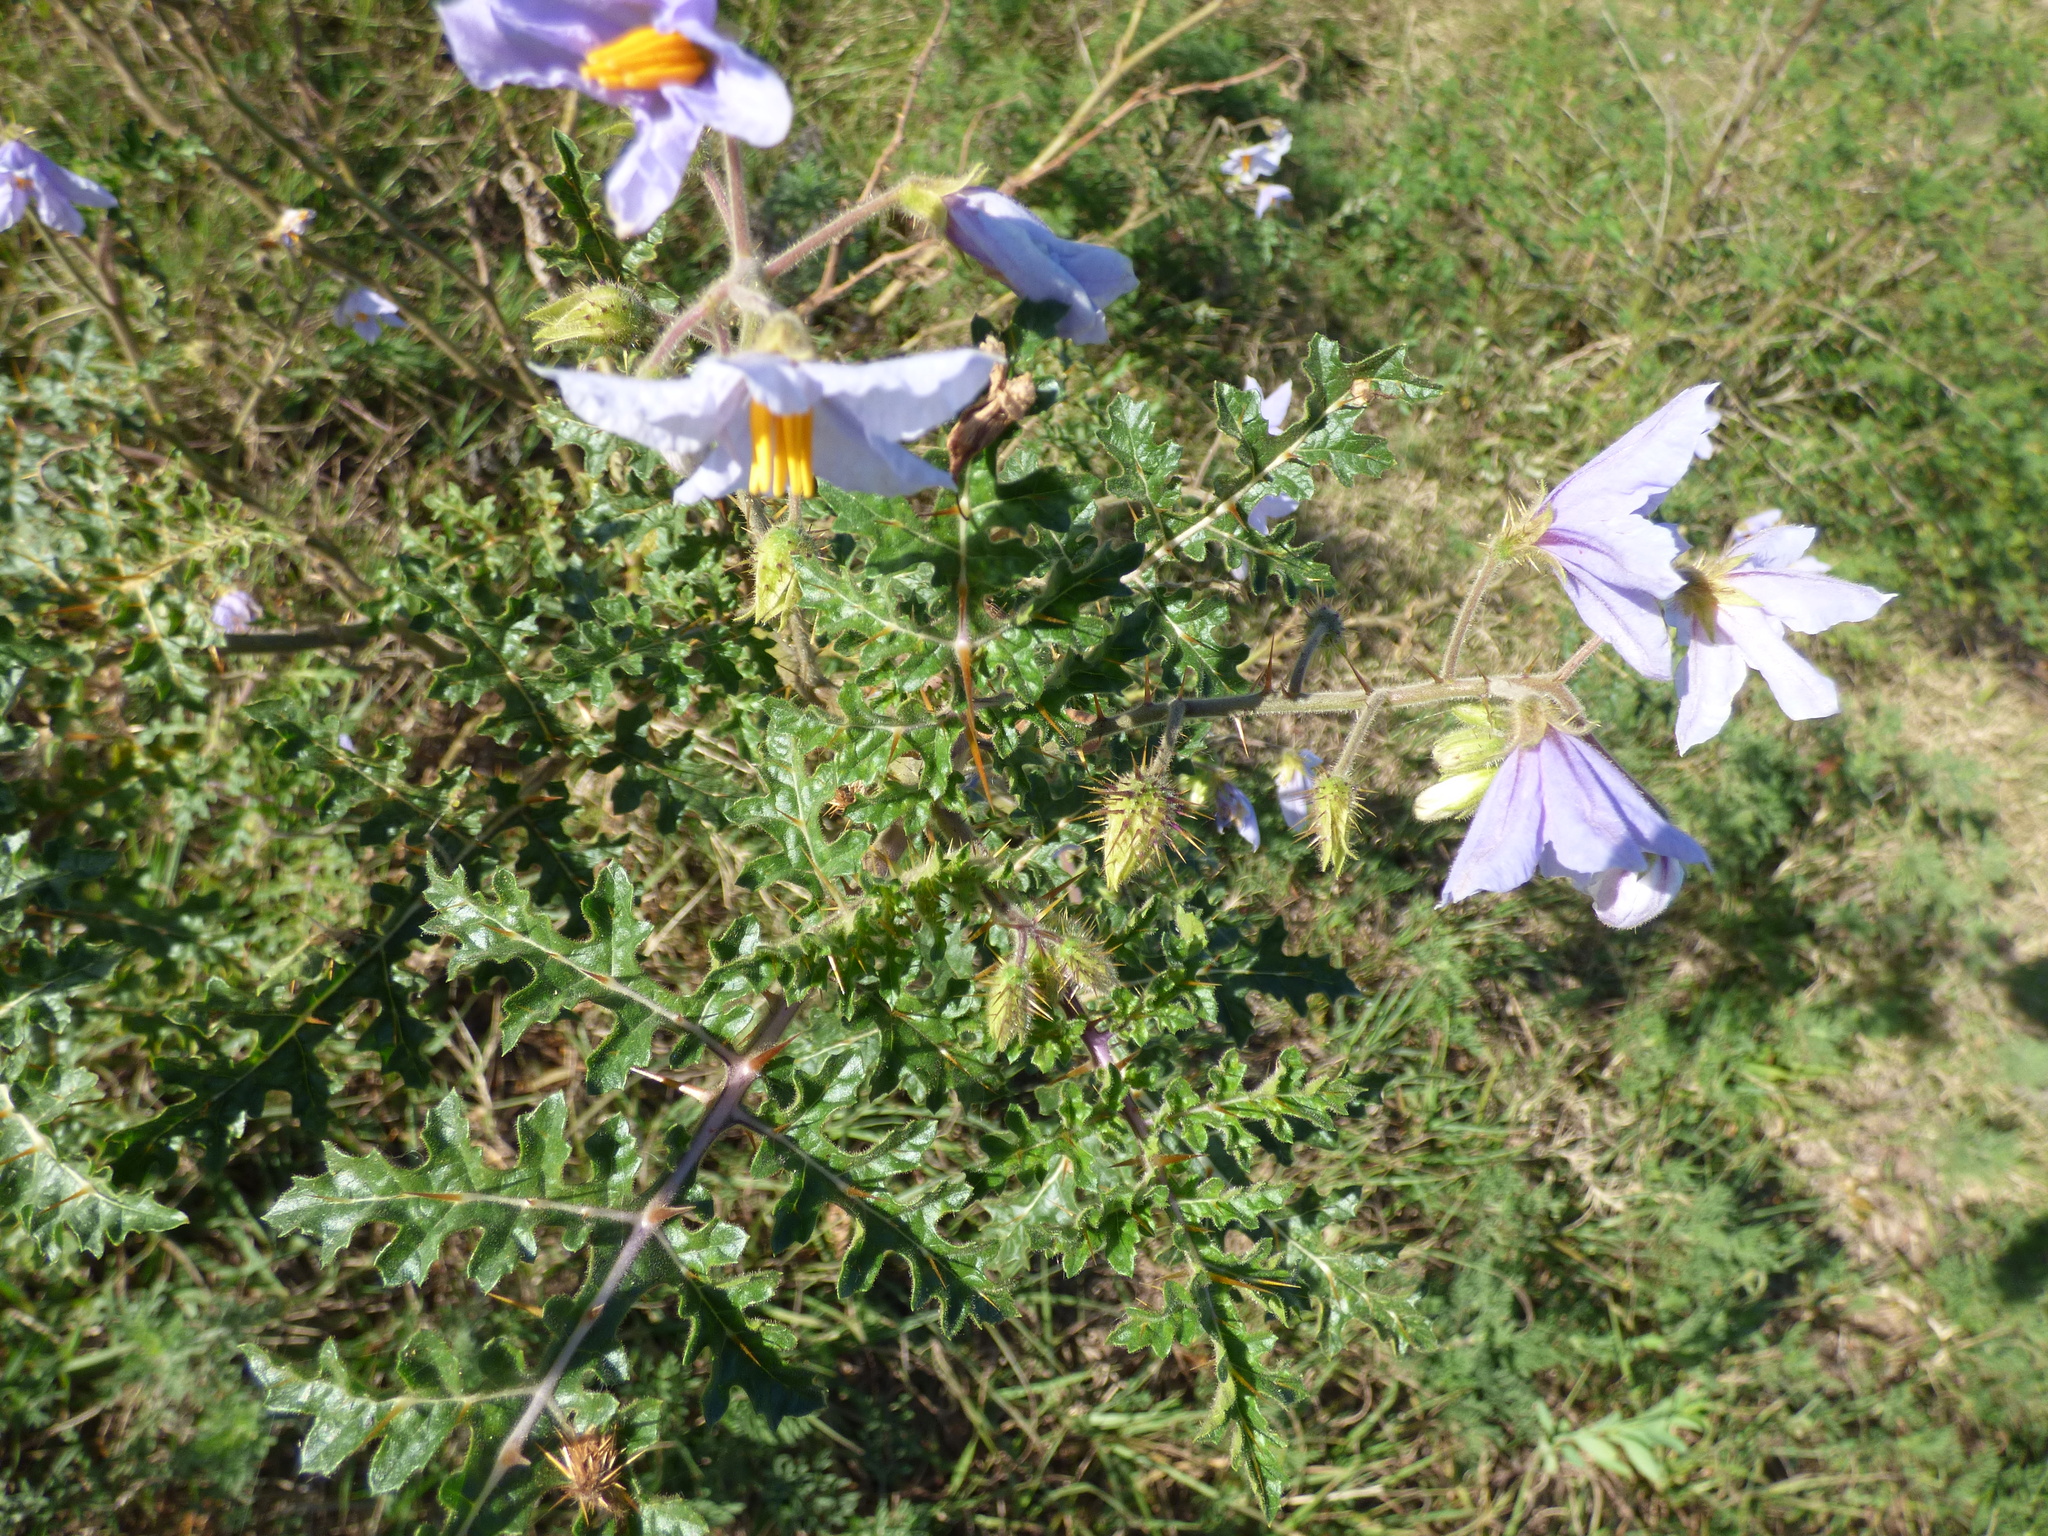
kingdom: Plantae
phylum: Tracheophyta
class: Magnoliopsida
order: Solanales
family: Solanaceae
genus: Solanum
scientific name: Solanum sisymbriifolium
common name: Red buffalo-bur
